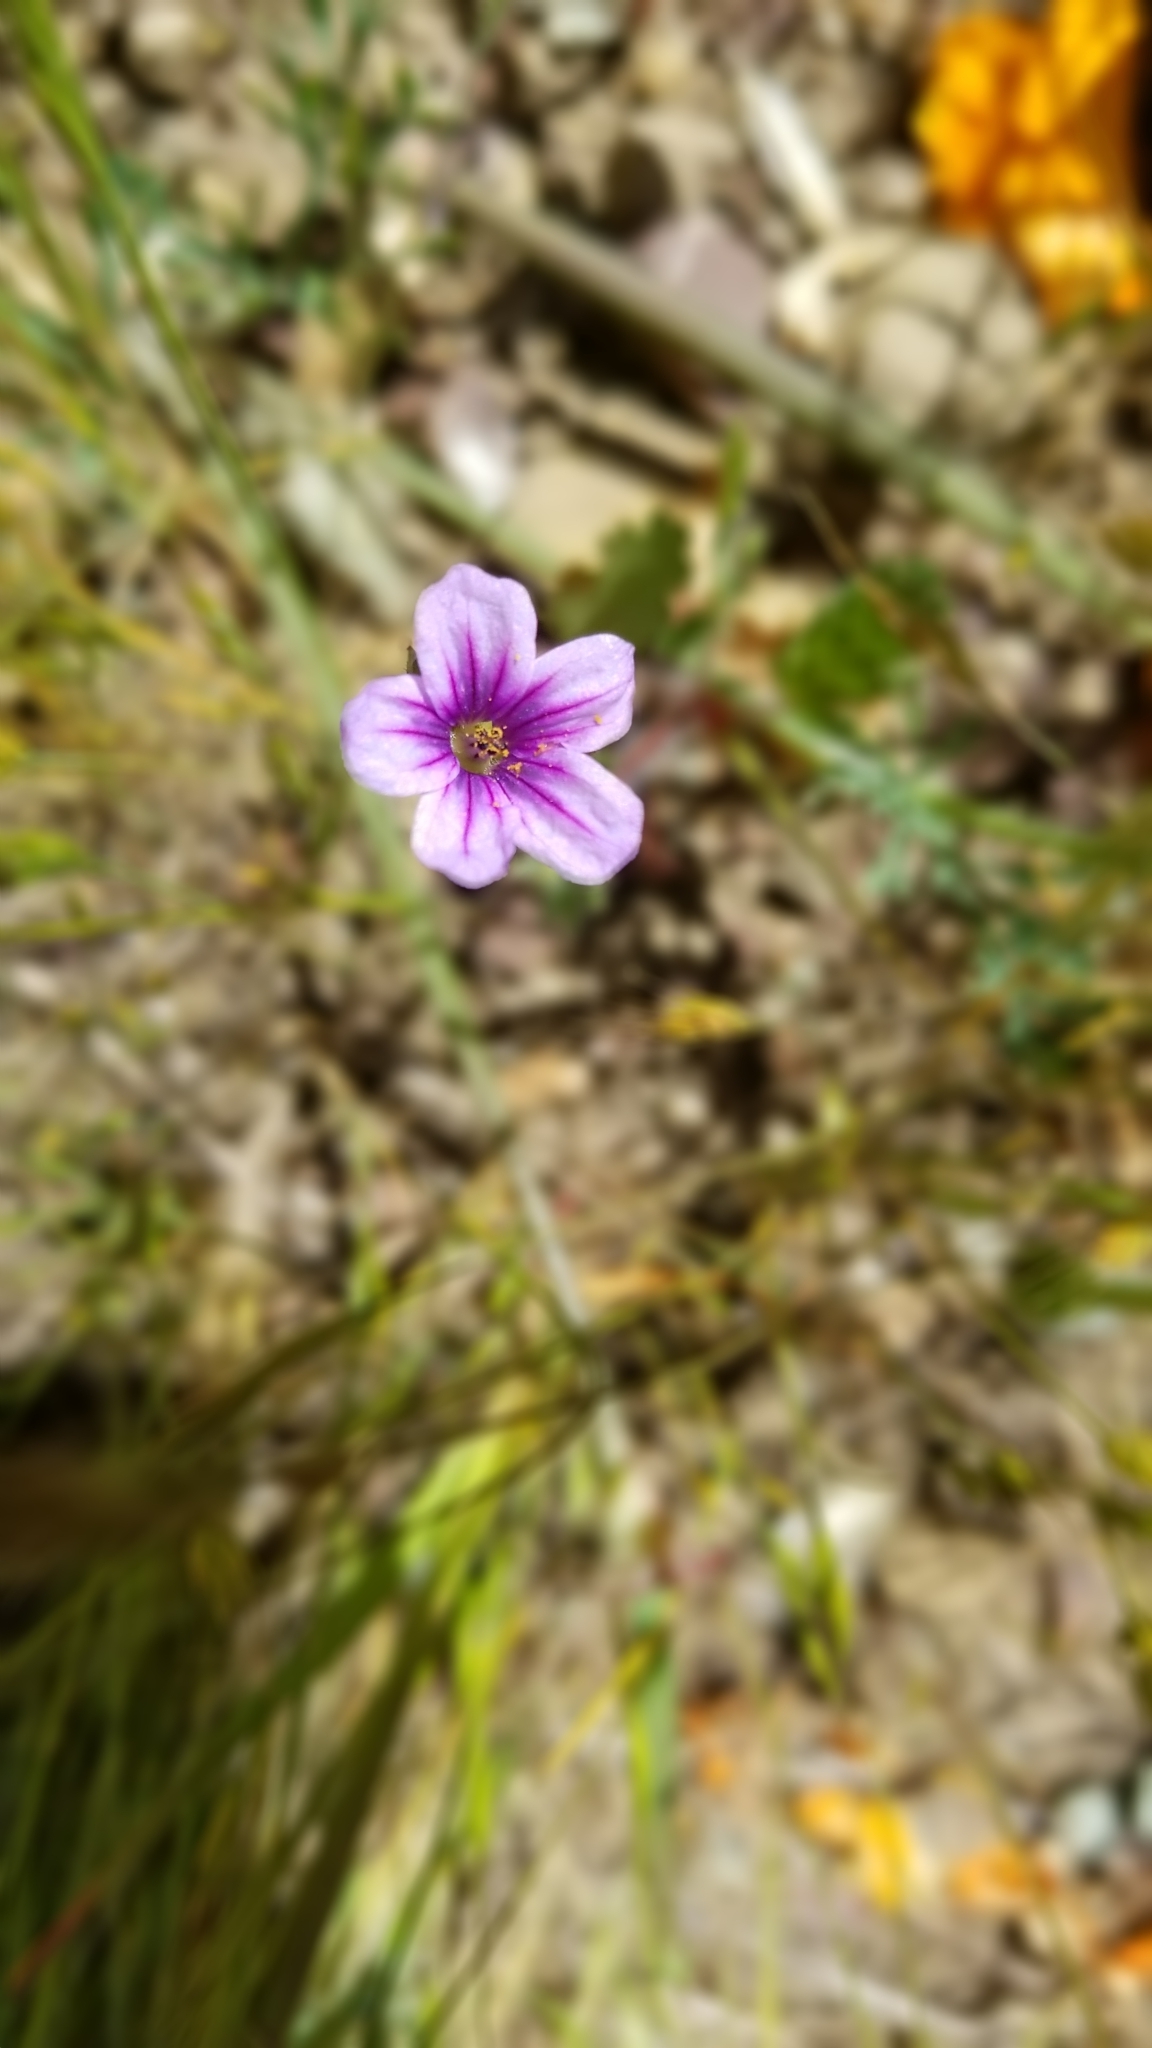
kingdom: Plantae
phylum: Tracheophyta
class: Magnoliopsida
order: Geraniales
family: Geraniaceae
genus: Erodium
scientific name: Erodium botrys
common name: Mediterranean stork's-bill
